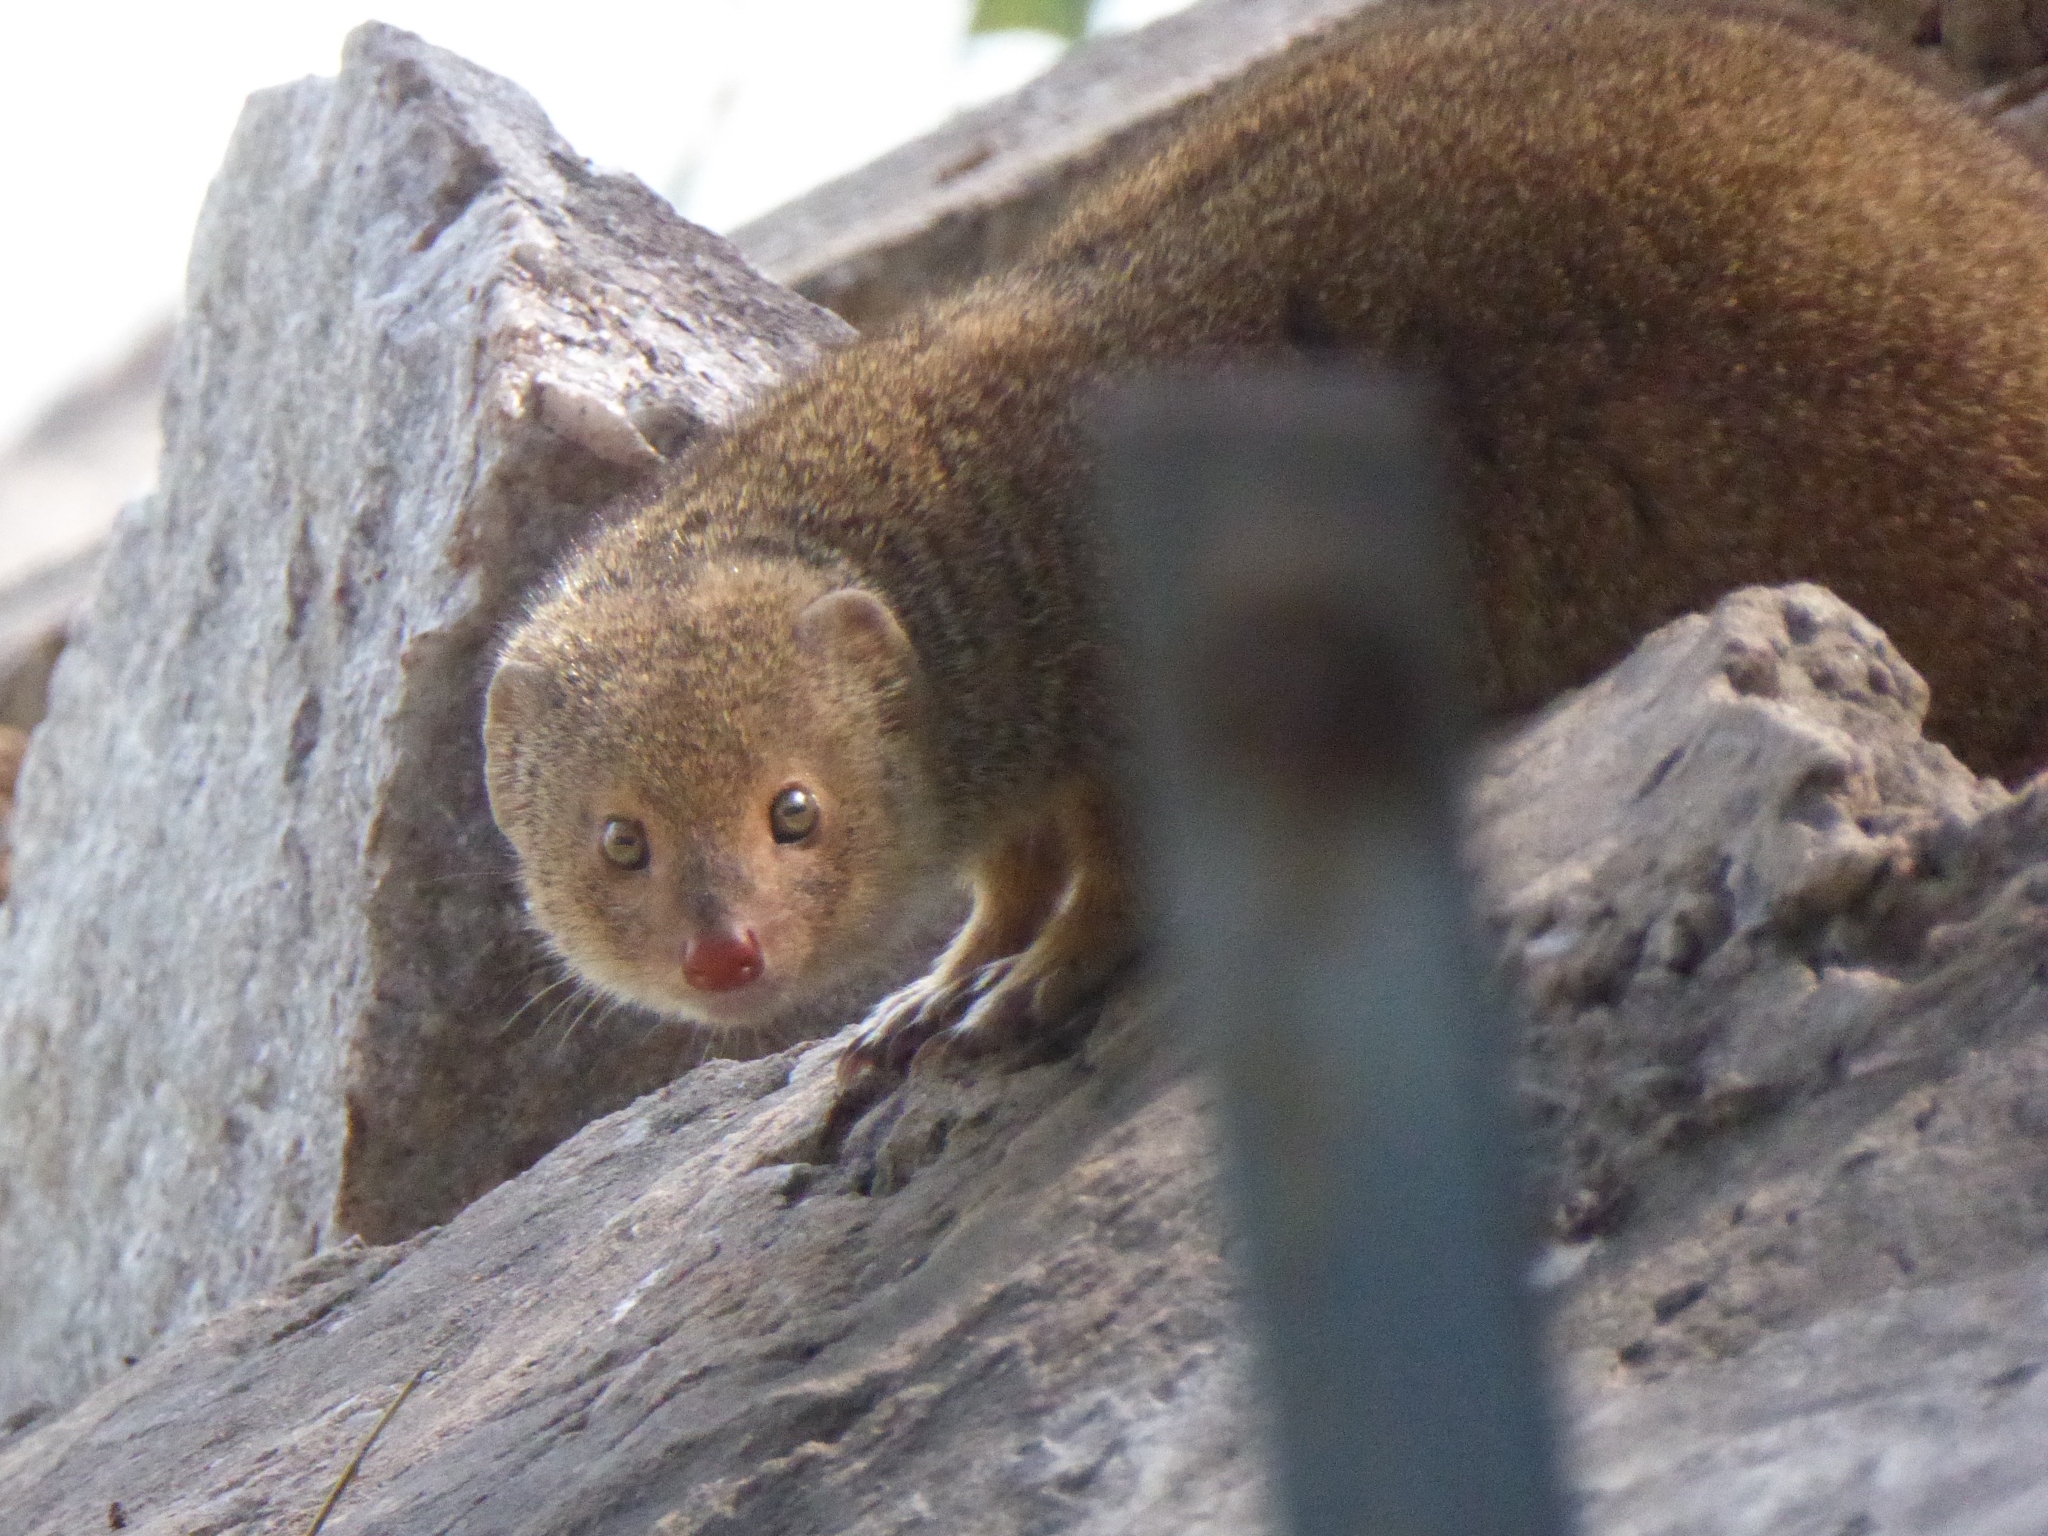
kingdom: Animalia
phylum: Chordata
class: Mammalia
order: Carnivora
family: Herpestidae
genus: Herpestes
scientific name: Herpestes javanicus
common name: Small asian mongoose
